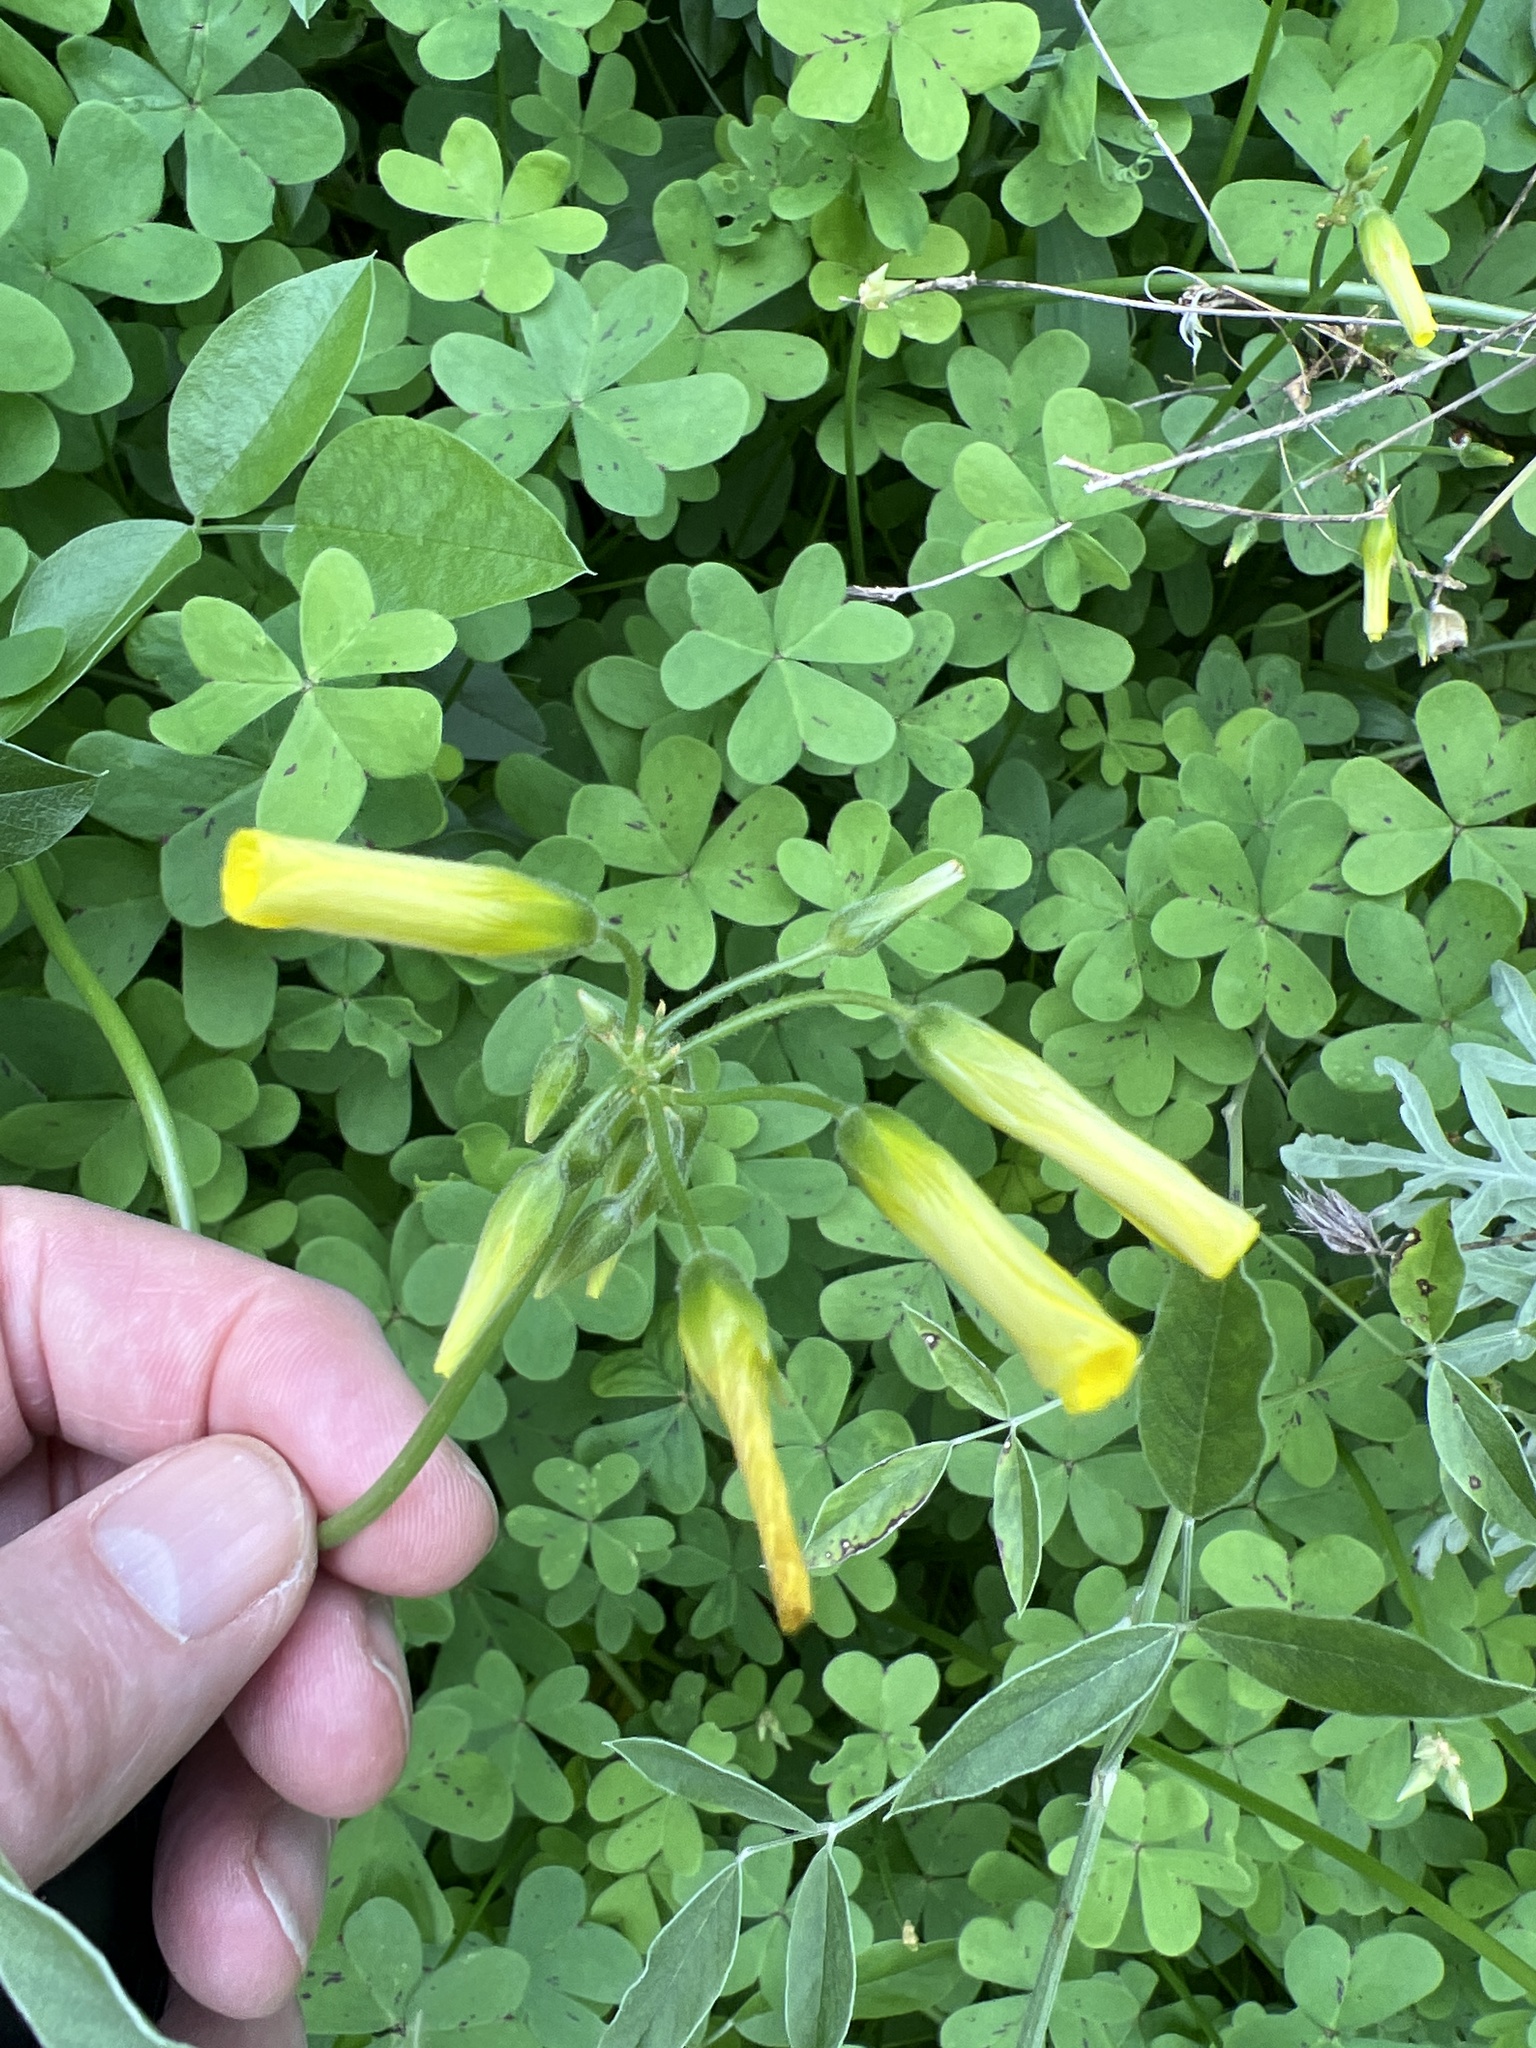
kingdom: Plantae
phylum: Tracheophyta
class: Magnoliopsida
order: Oxalidales
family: Oxalidaceae
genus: Oxalis
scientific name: Oxalis pes-caprae
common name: Bermuda-buttercup
